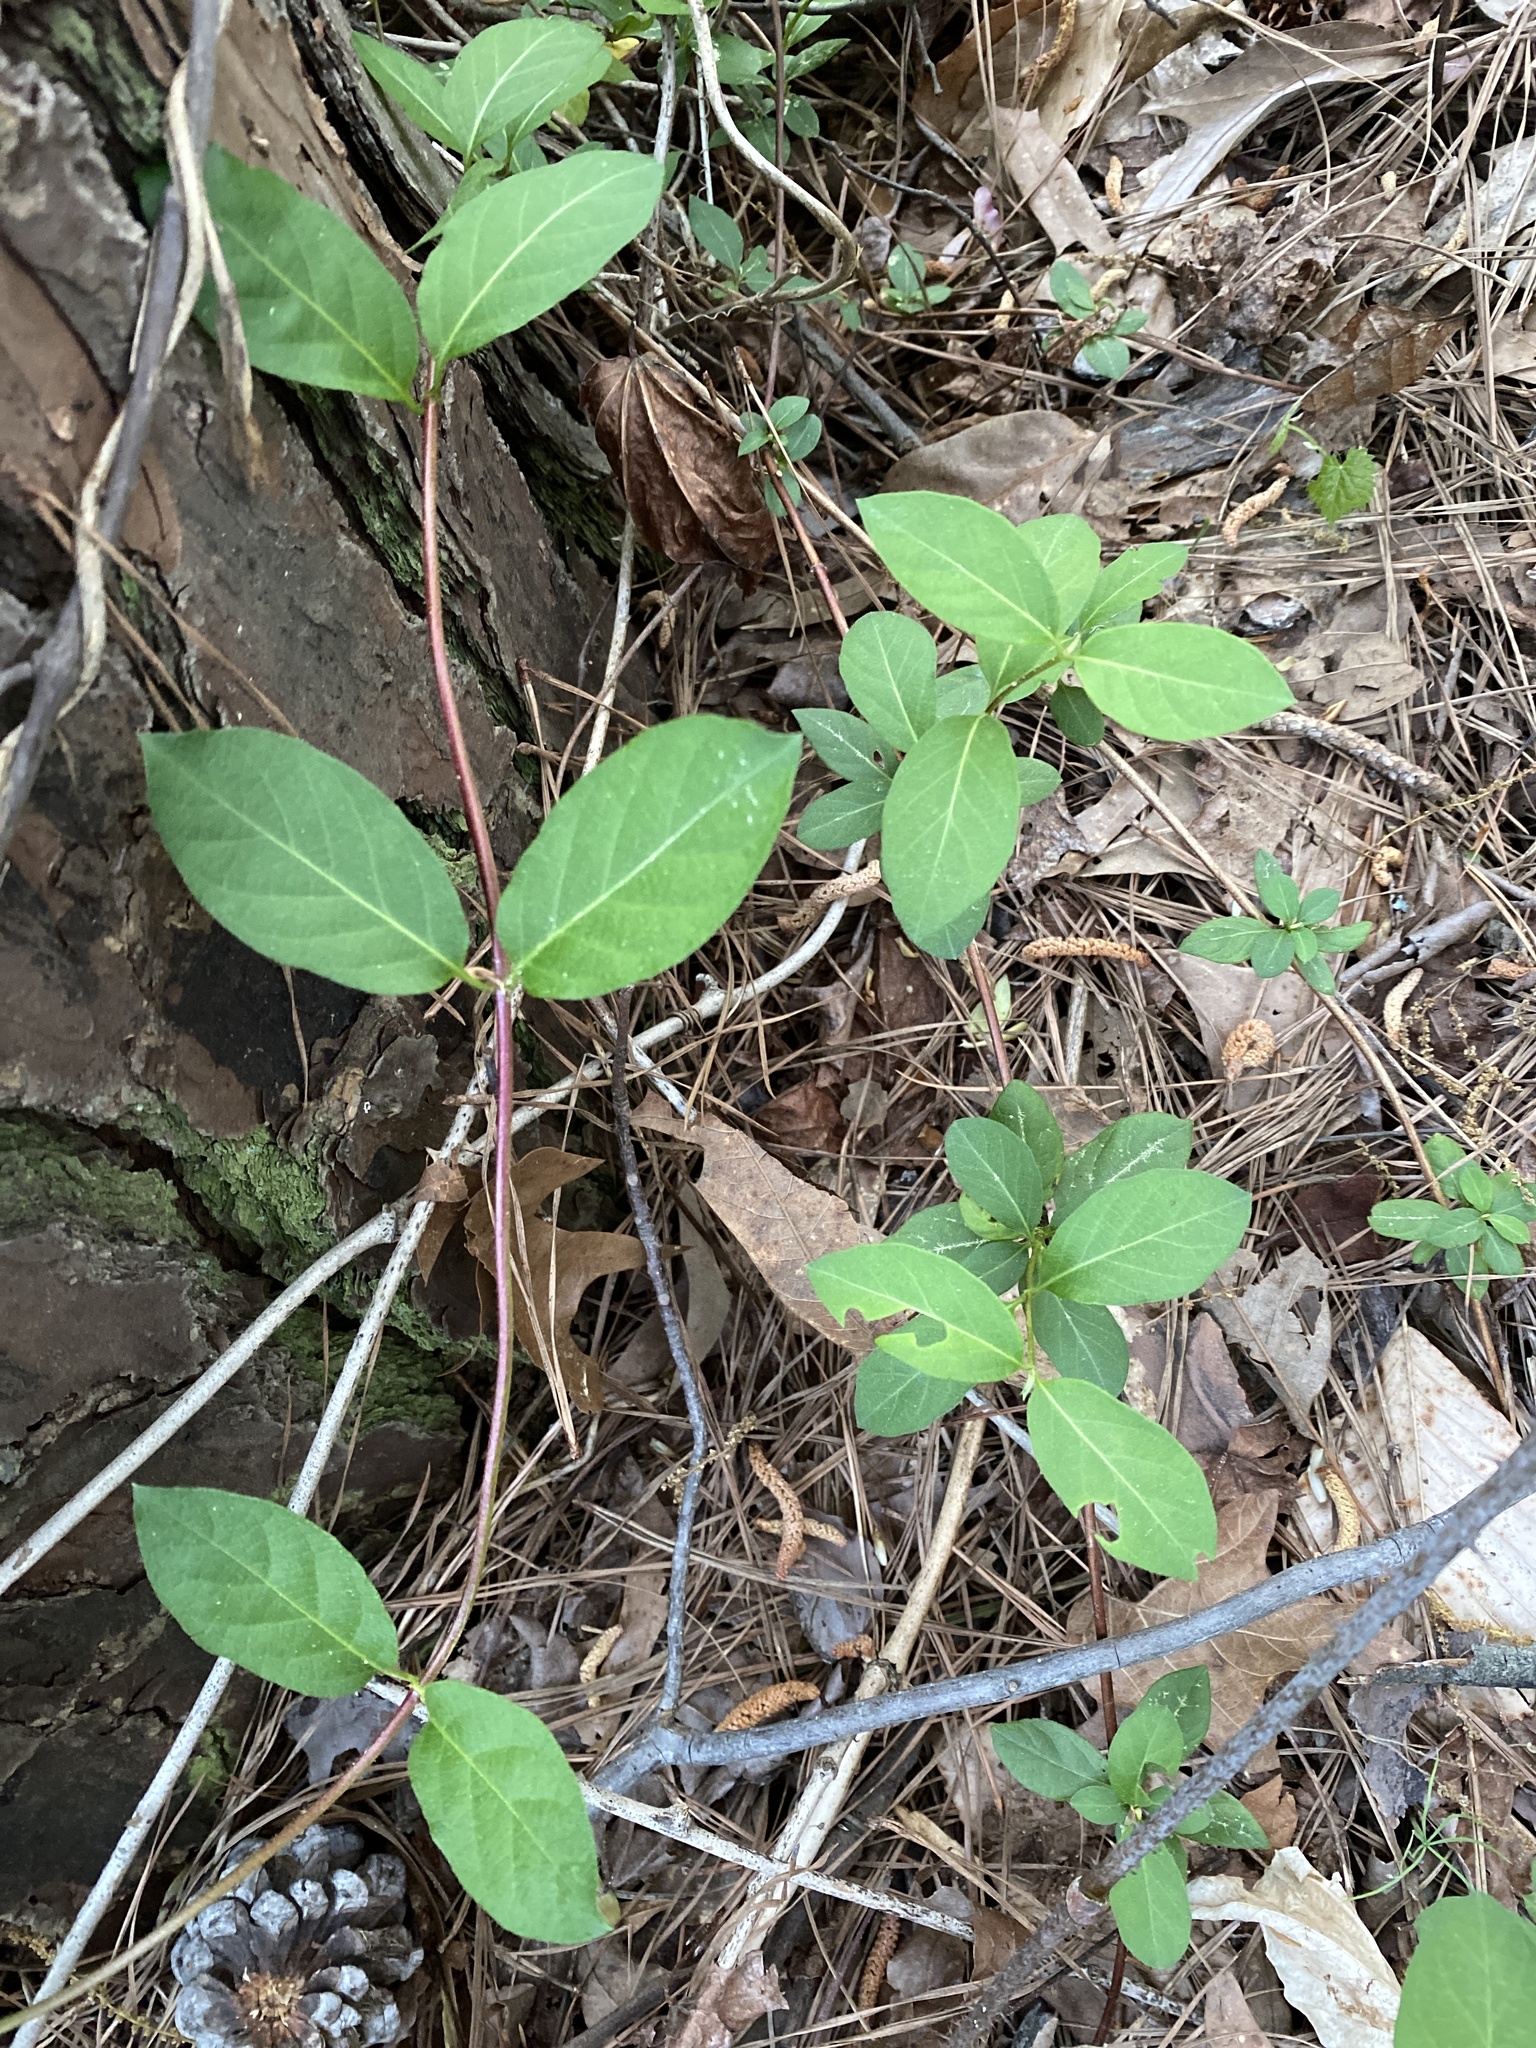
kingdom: Plantae
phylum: Tracheophyta
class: Magnoliopsida
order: Dipsacales
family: Caprifoliaceae
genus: Lonicera
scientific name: Lonicera japonica
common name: Japanese honeysuckle
